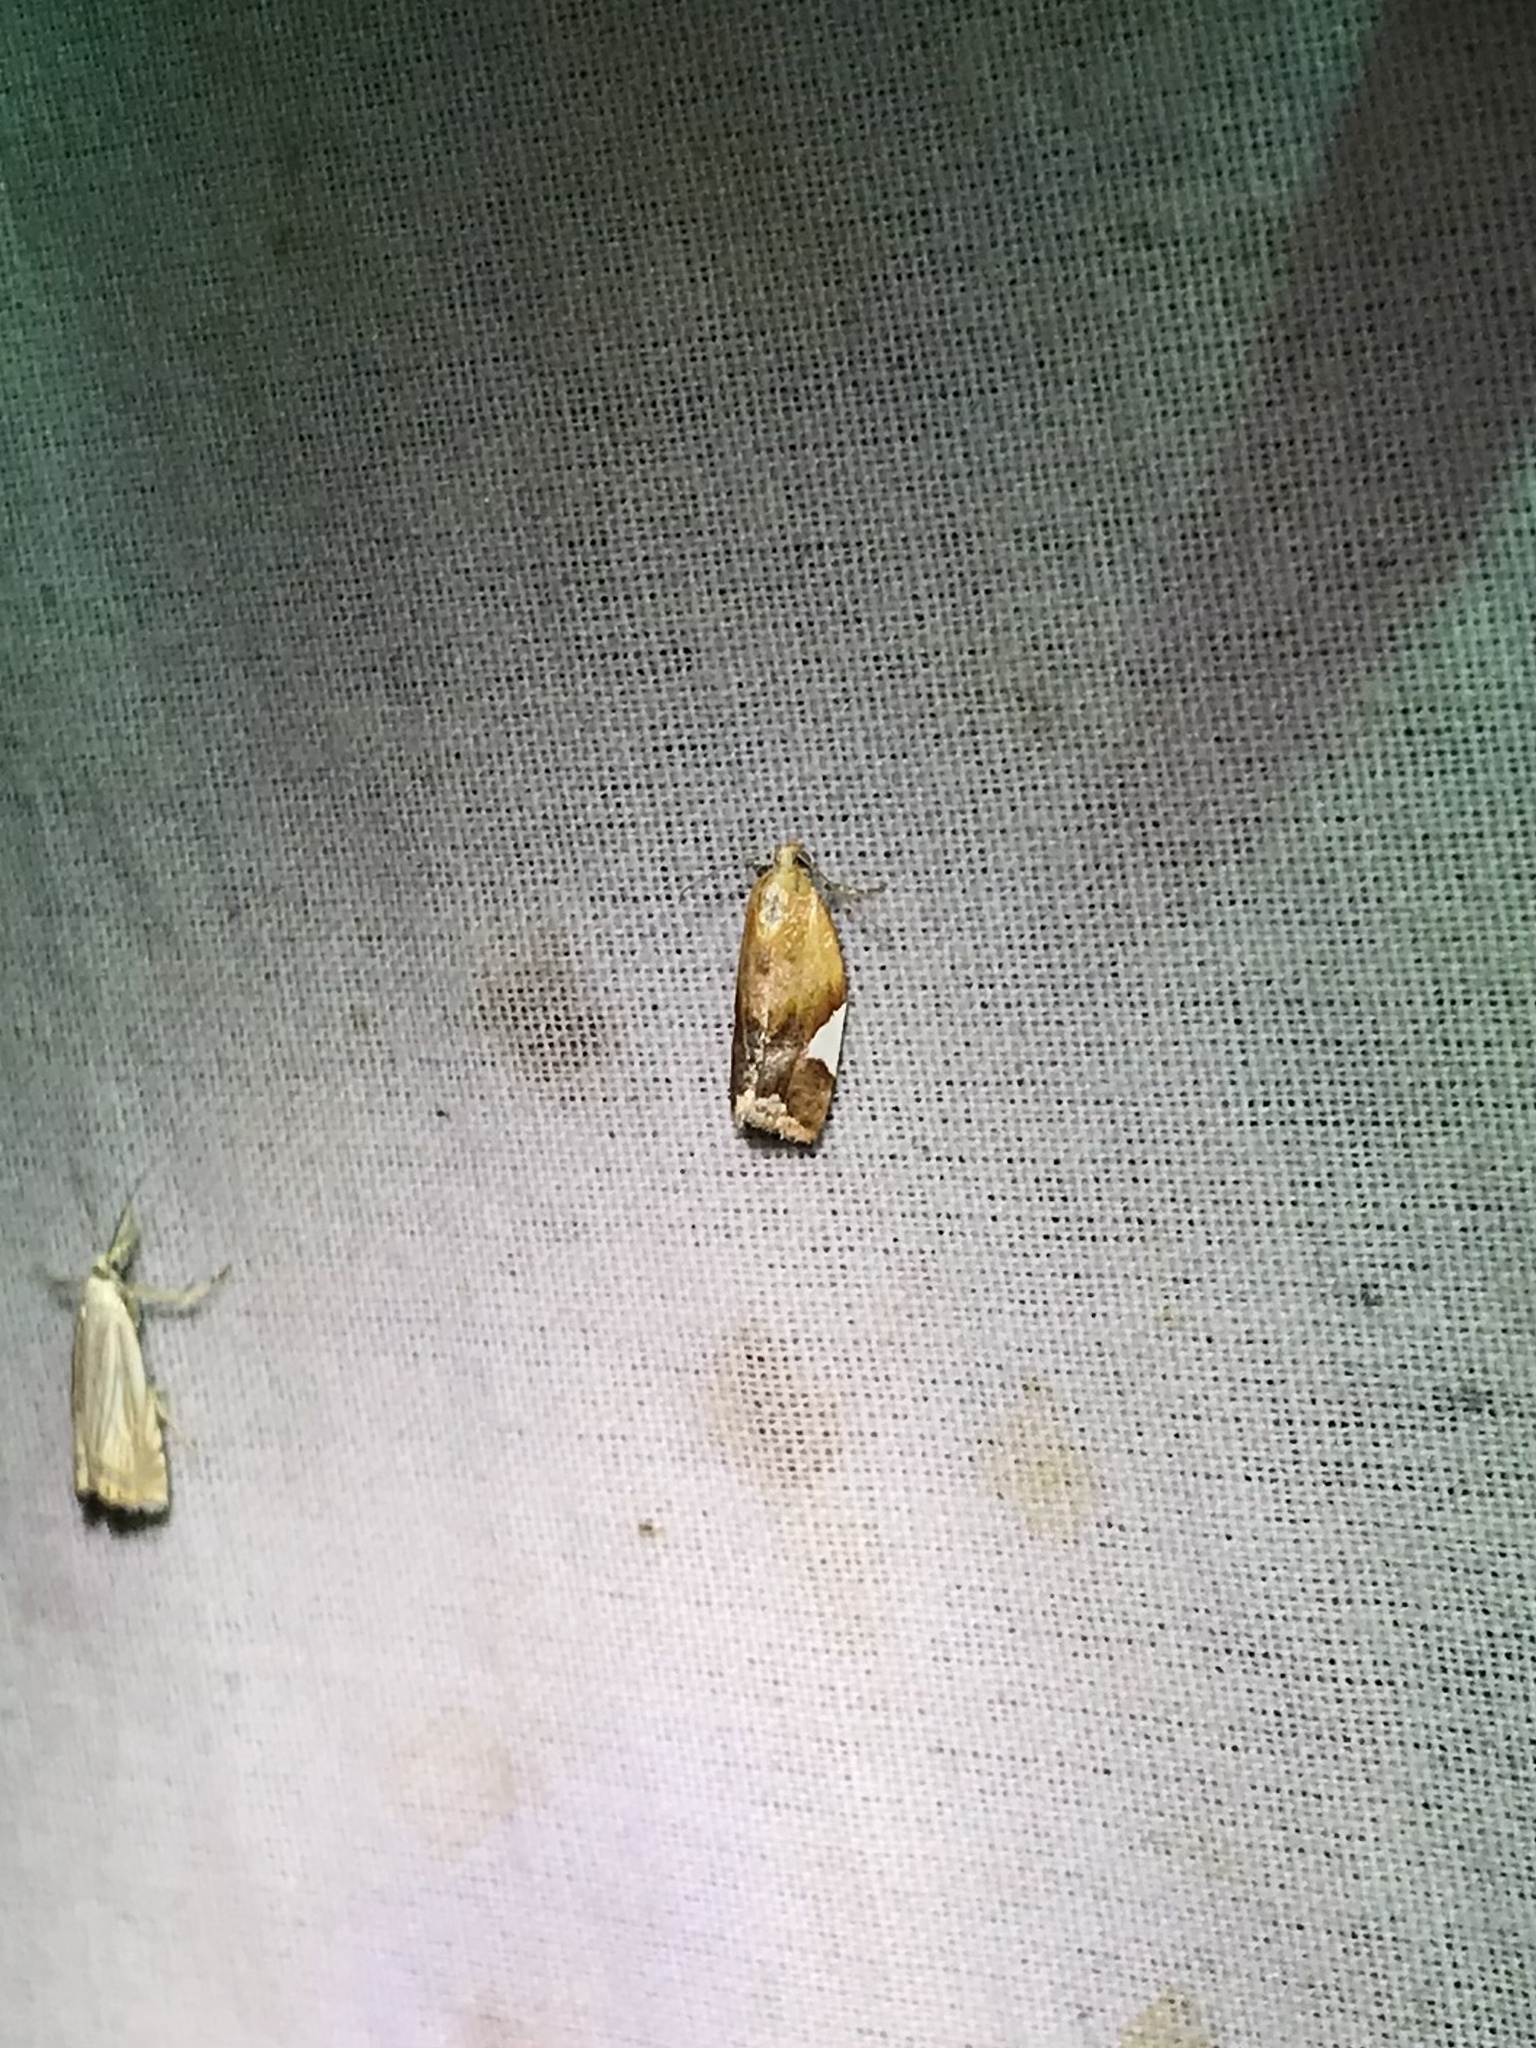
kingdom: Animalia
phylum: Arthropoda
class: Insecta
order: Lepidoptera
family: Tortricidae
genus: Clepsis
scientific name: Clepsis persicana
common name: White triangle tortrix
